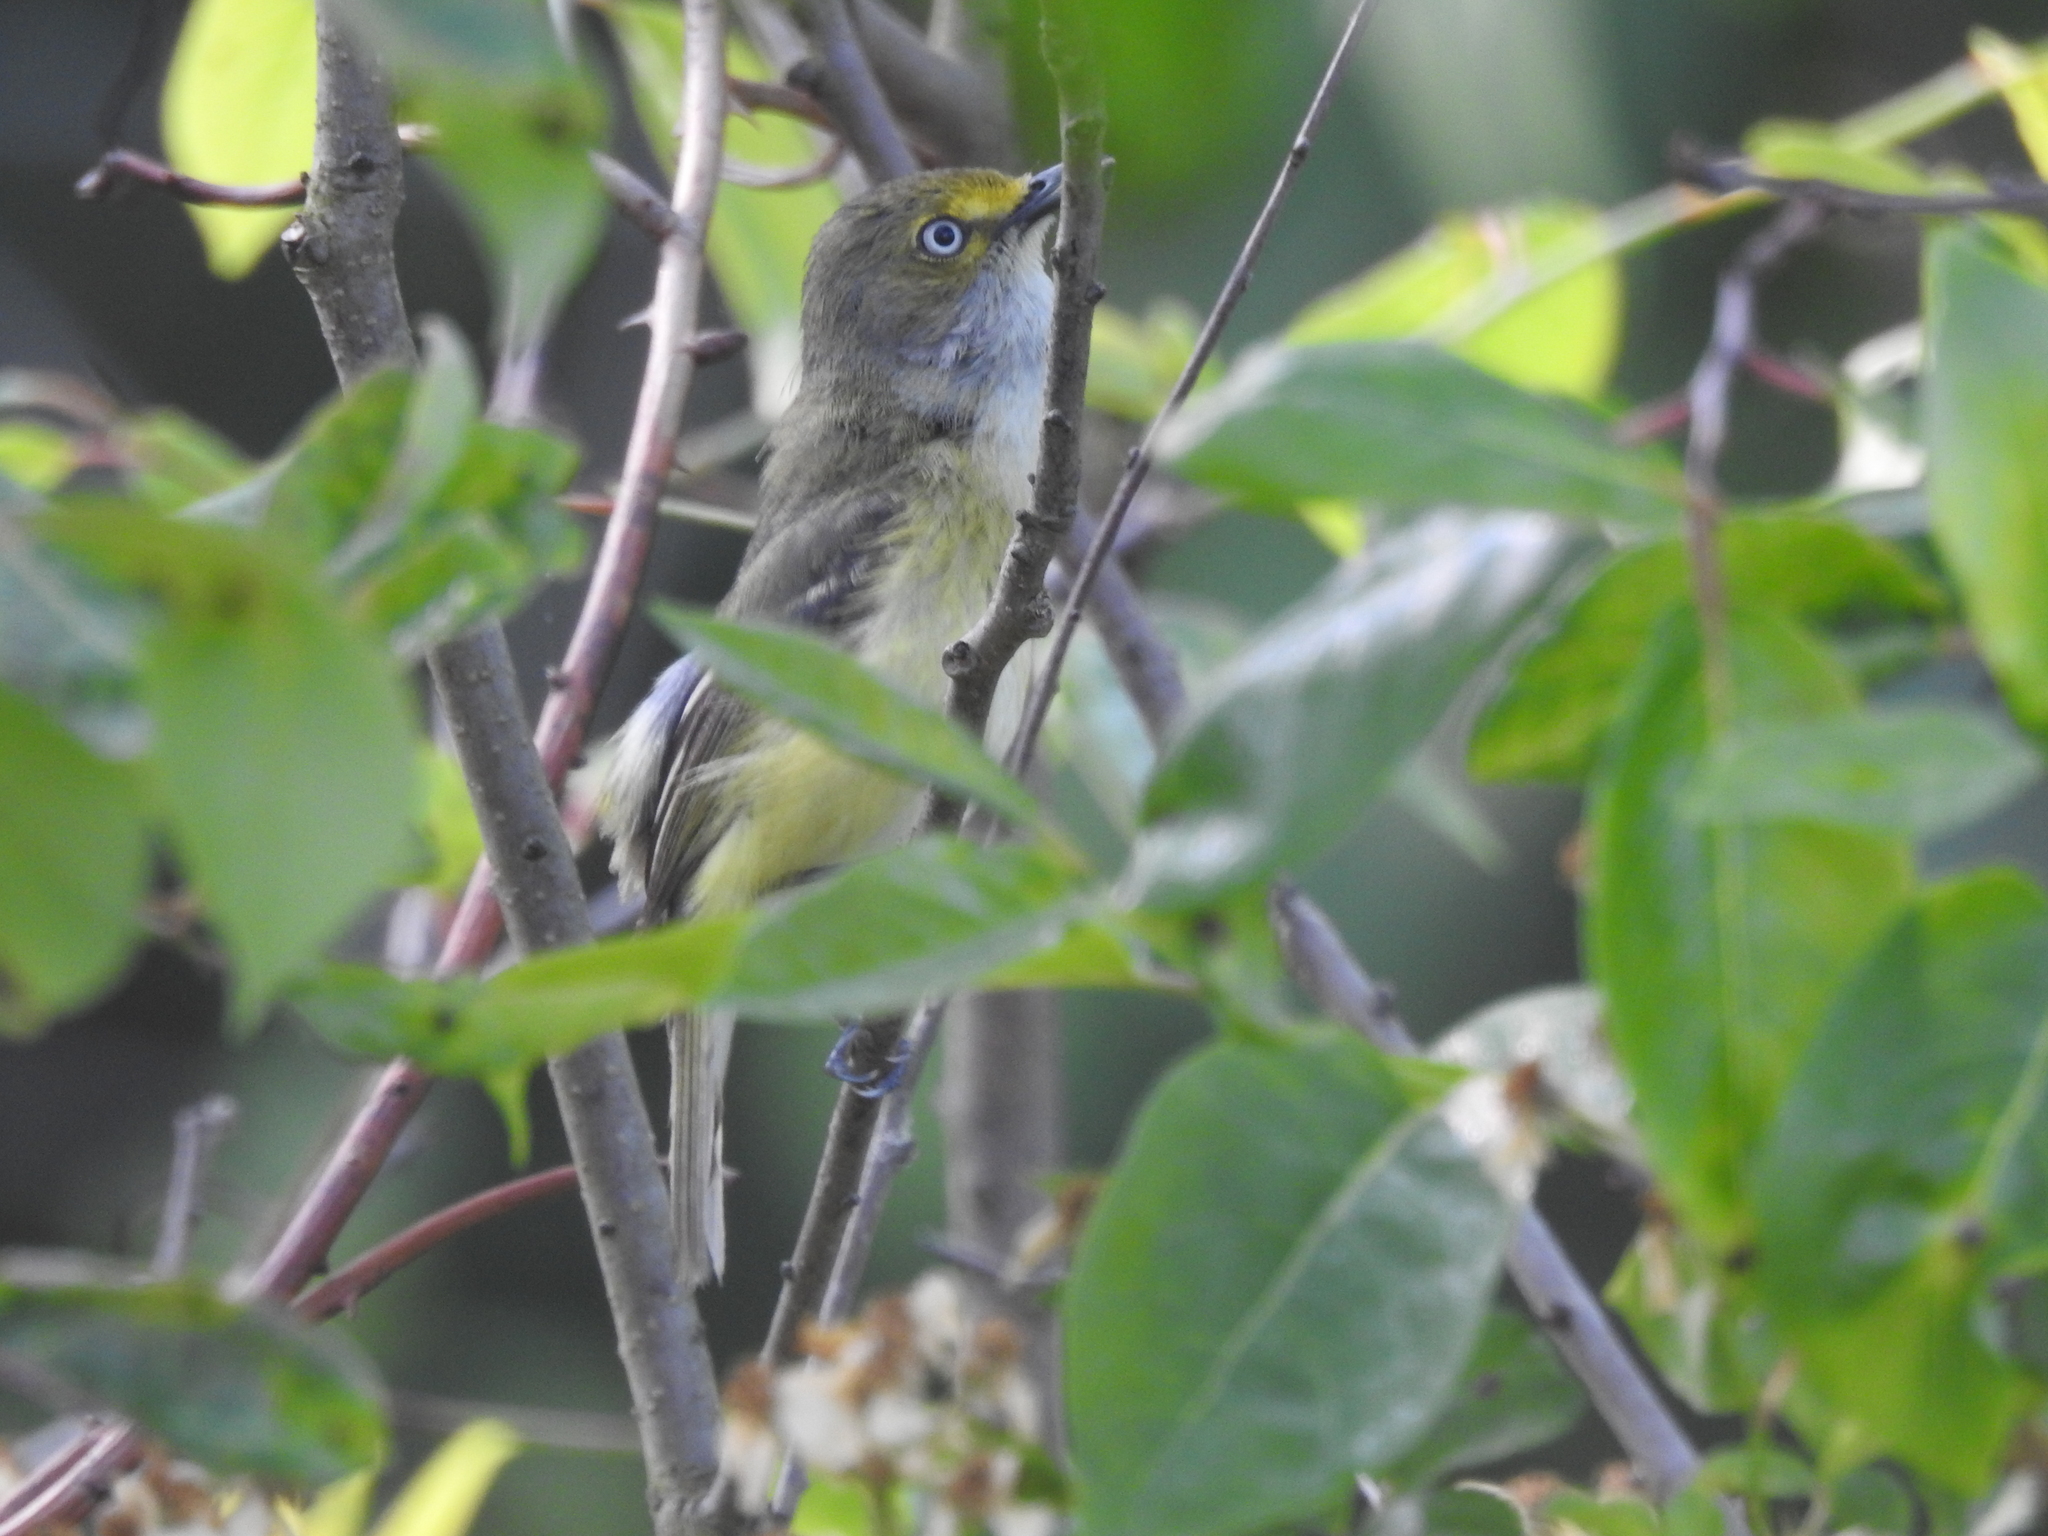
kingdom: Animalia
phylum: Chordata
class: Aves
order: Passeriformes
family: Vireonidae
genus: Vireo
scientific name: Vireo griseus
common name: White-eyed vireo
